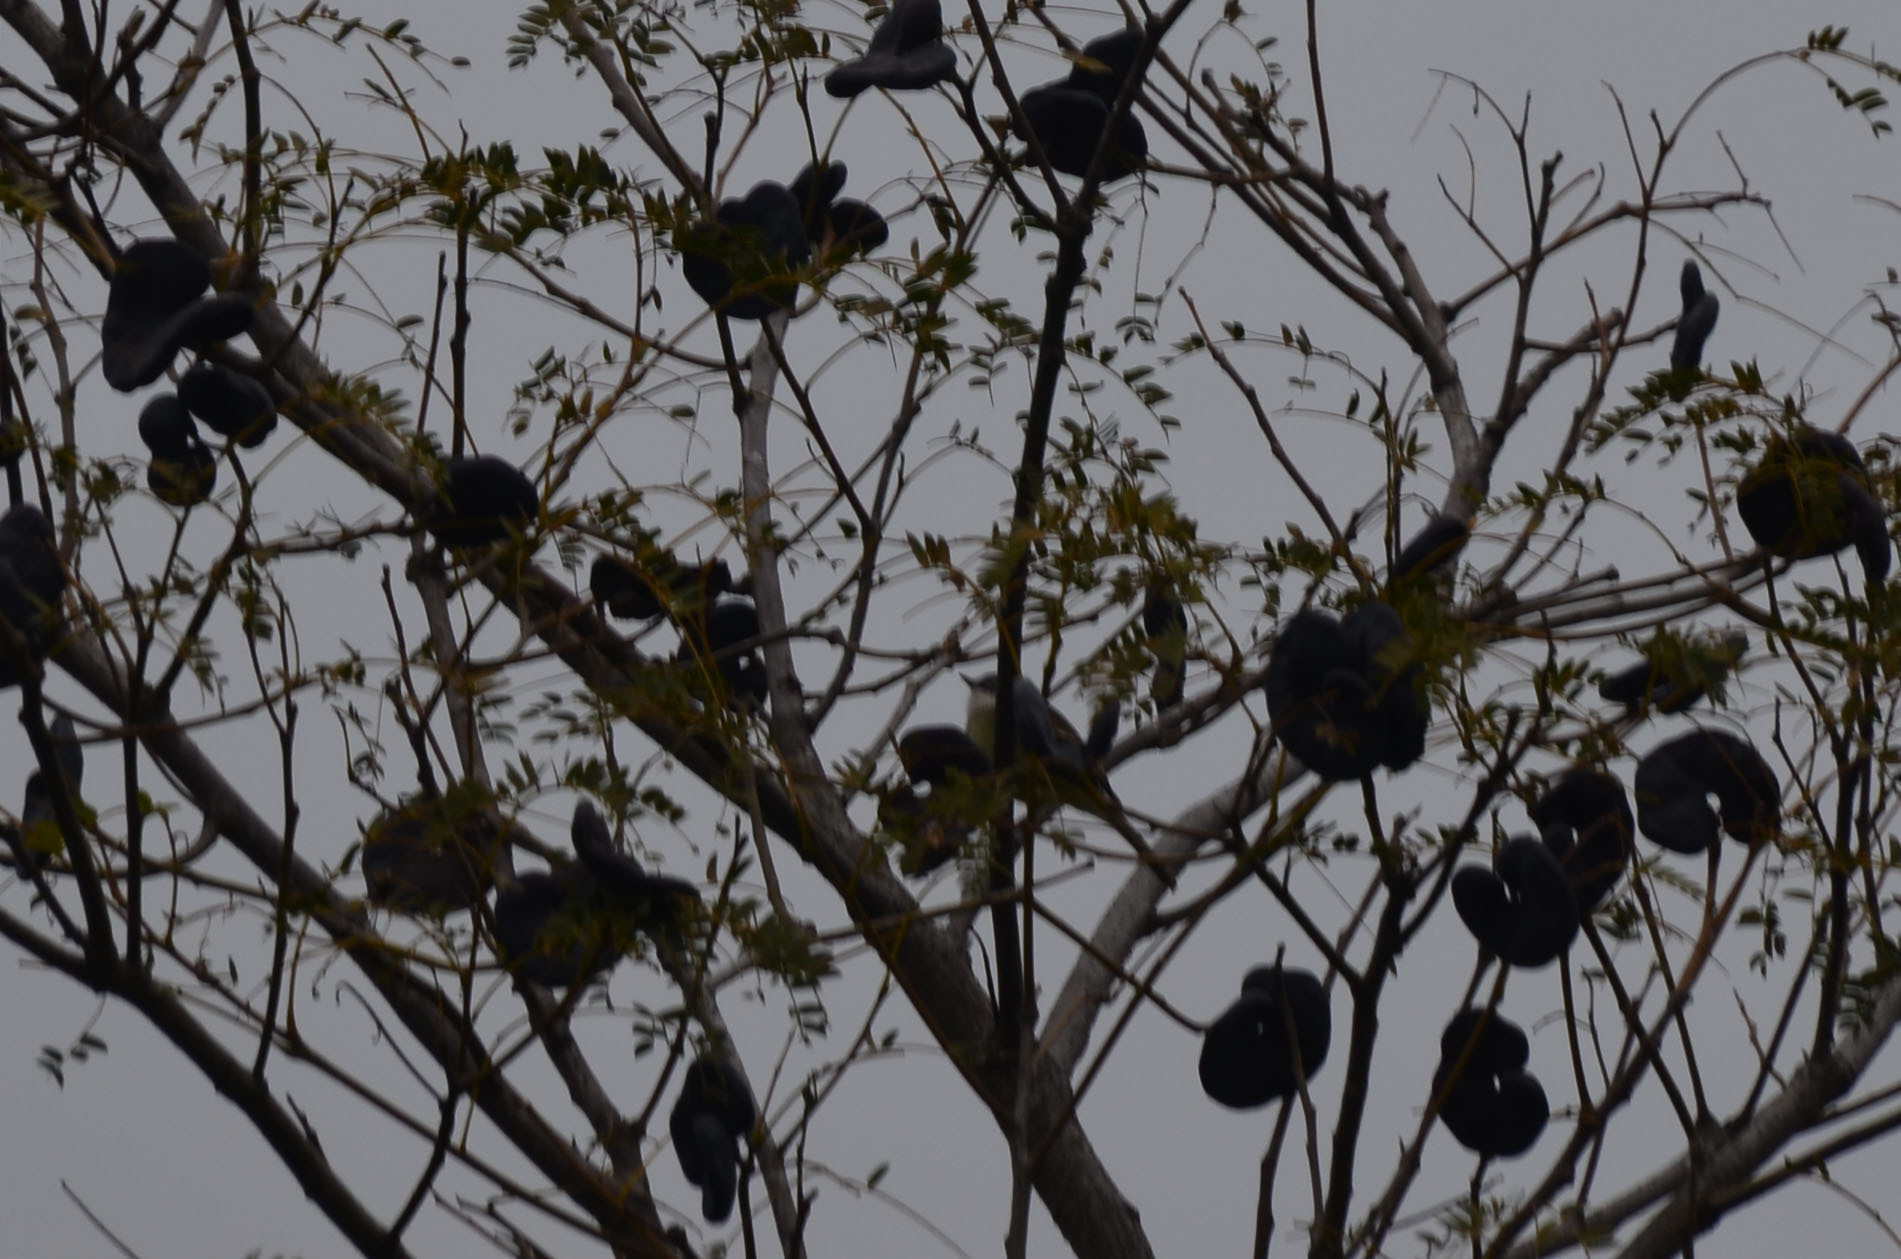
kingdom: Animalia
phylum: Chordata
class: Aves
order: Passeriformes
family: Tyrannidae
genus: Mecocerculus
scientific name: Mecocerculus leucophrys
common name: White-throated tyrannulet
